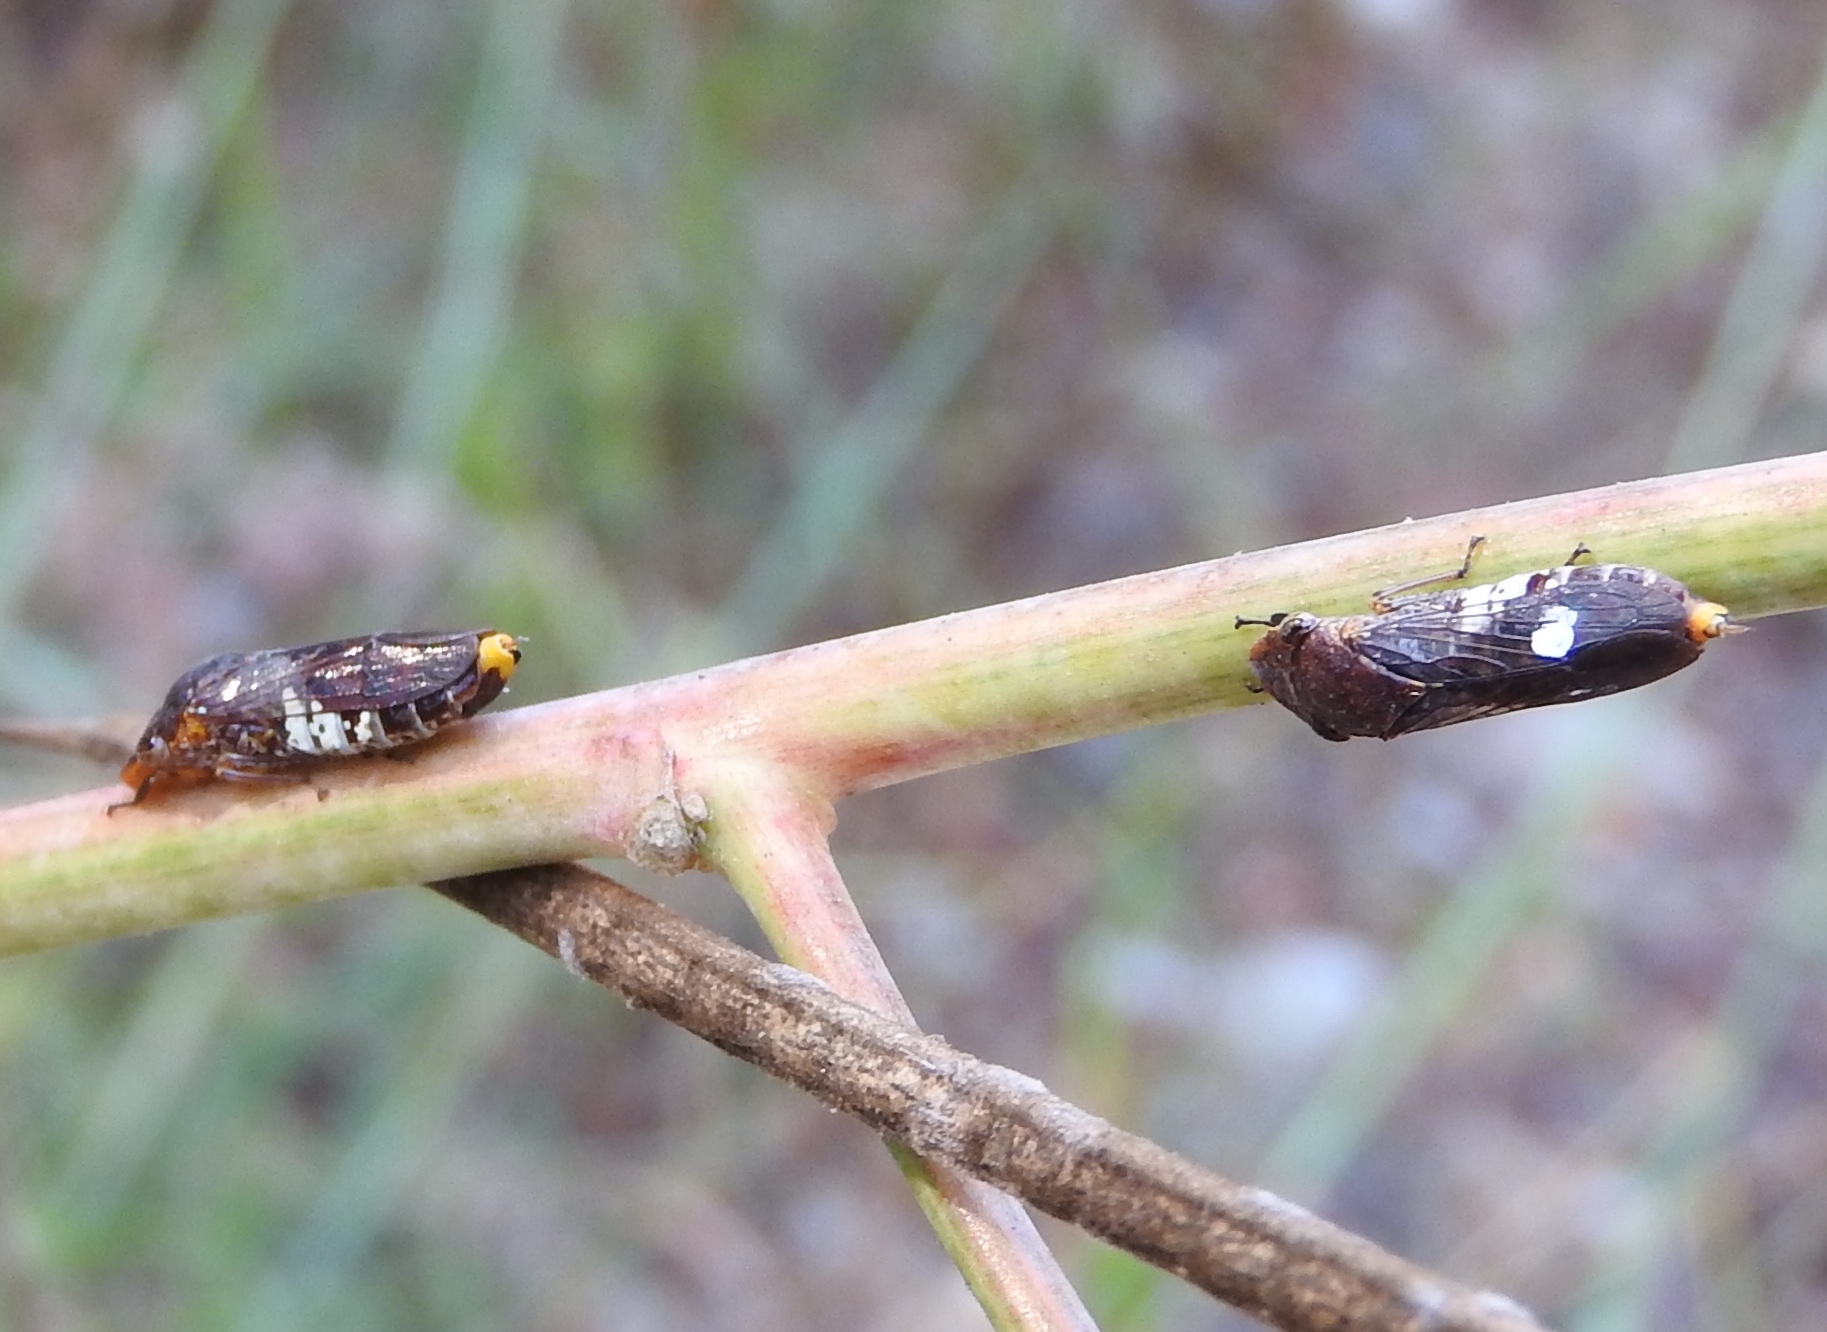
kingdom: Animalia
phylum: Arthropoda
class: Insecta
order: Hemiptera
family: Cicadellidae
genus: Homalodisca
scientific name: Homalodisca ichthyocephala
